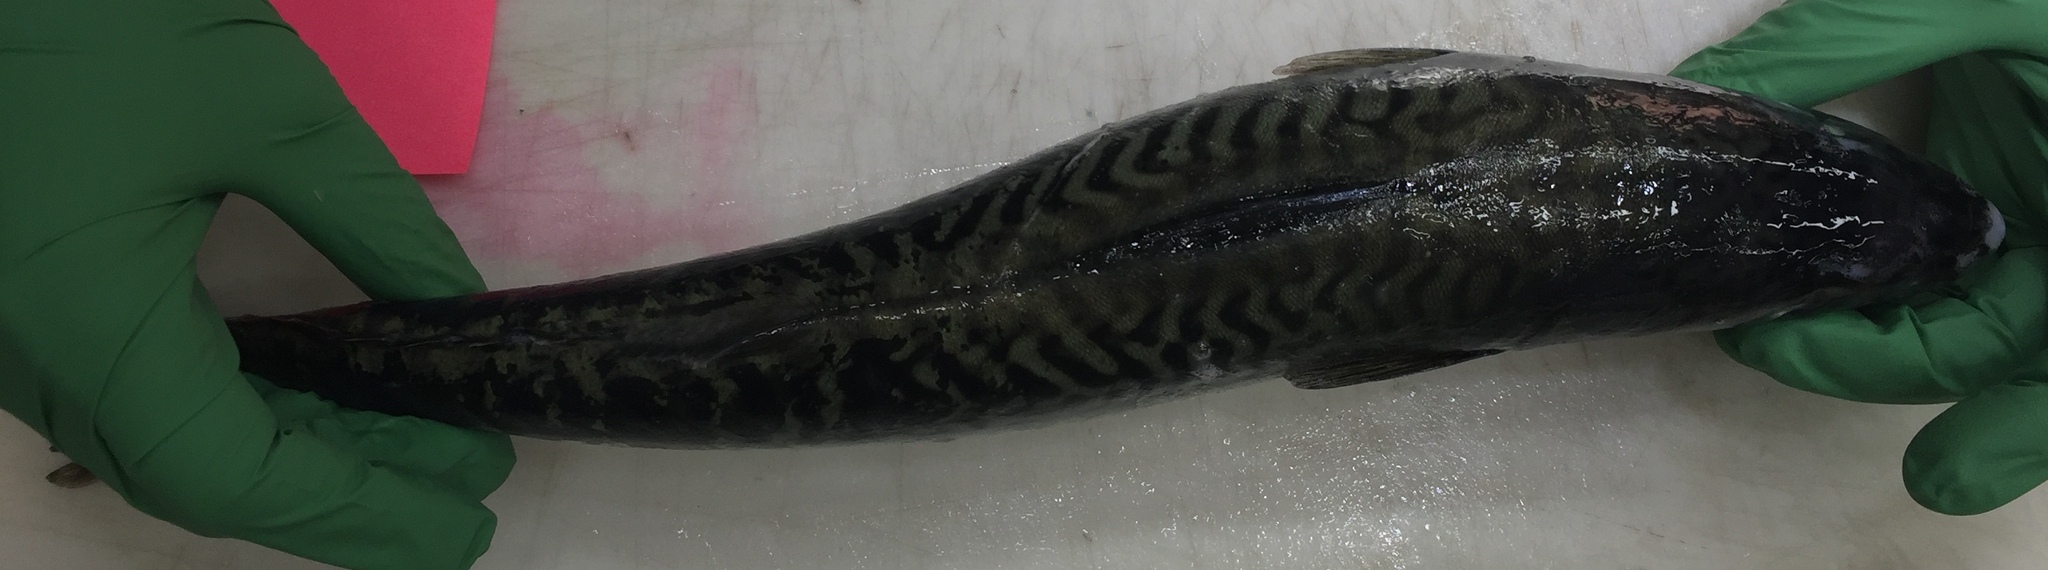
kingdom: Animalia
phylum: Chordata
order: Perciformes
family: Scombridae
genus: Scomber
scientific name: Scomber japonicus
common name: Chub mackerel
